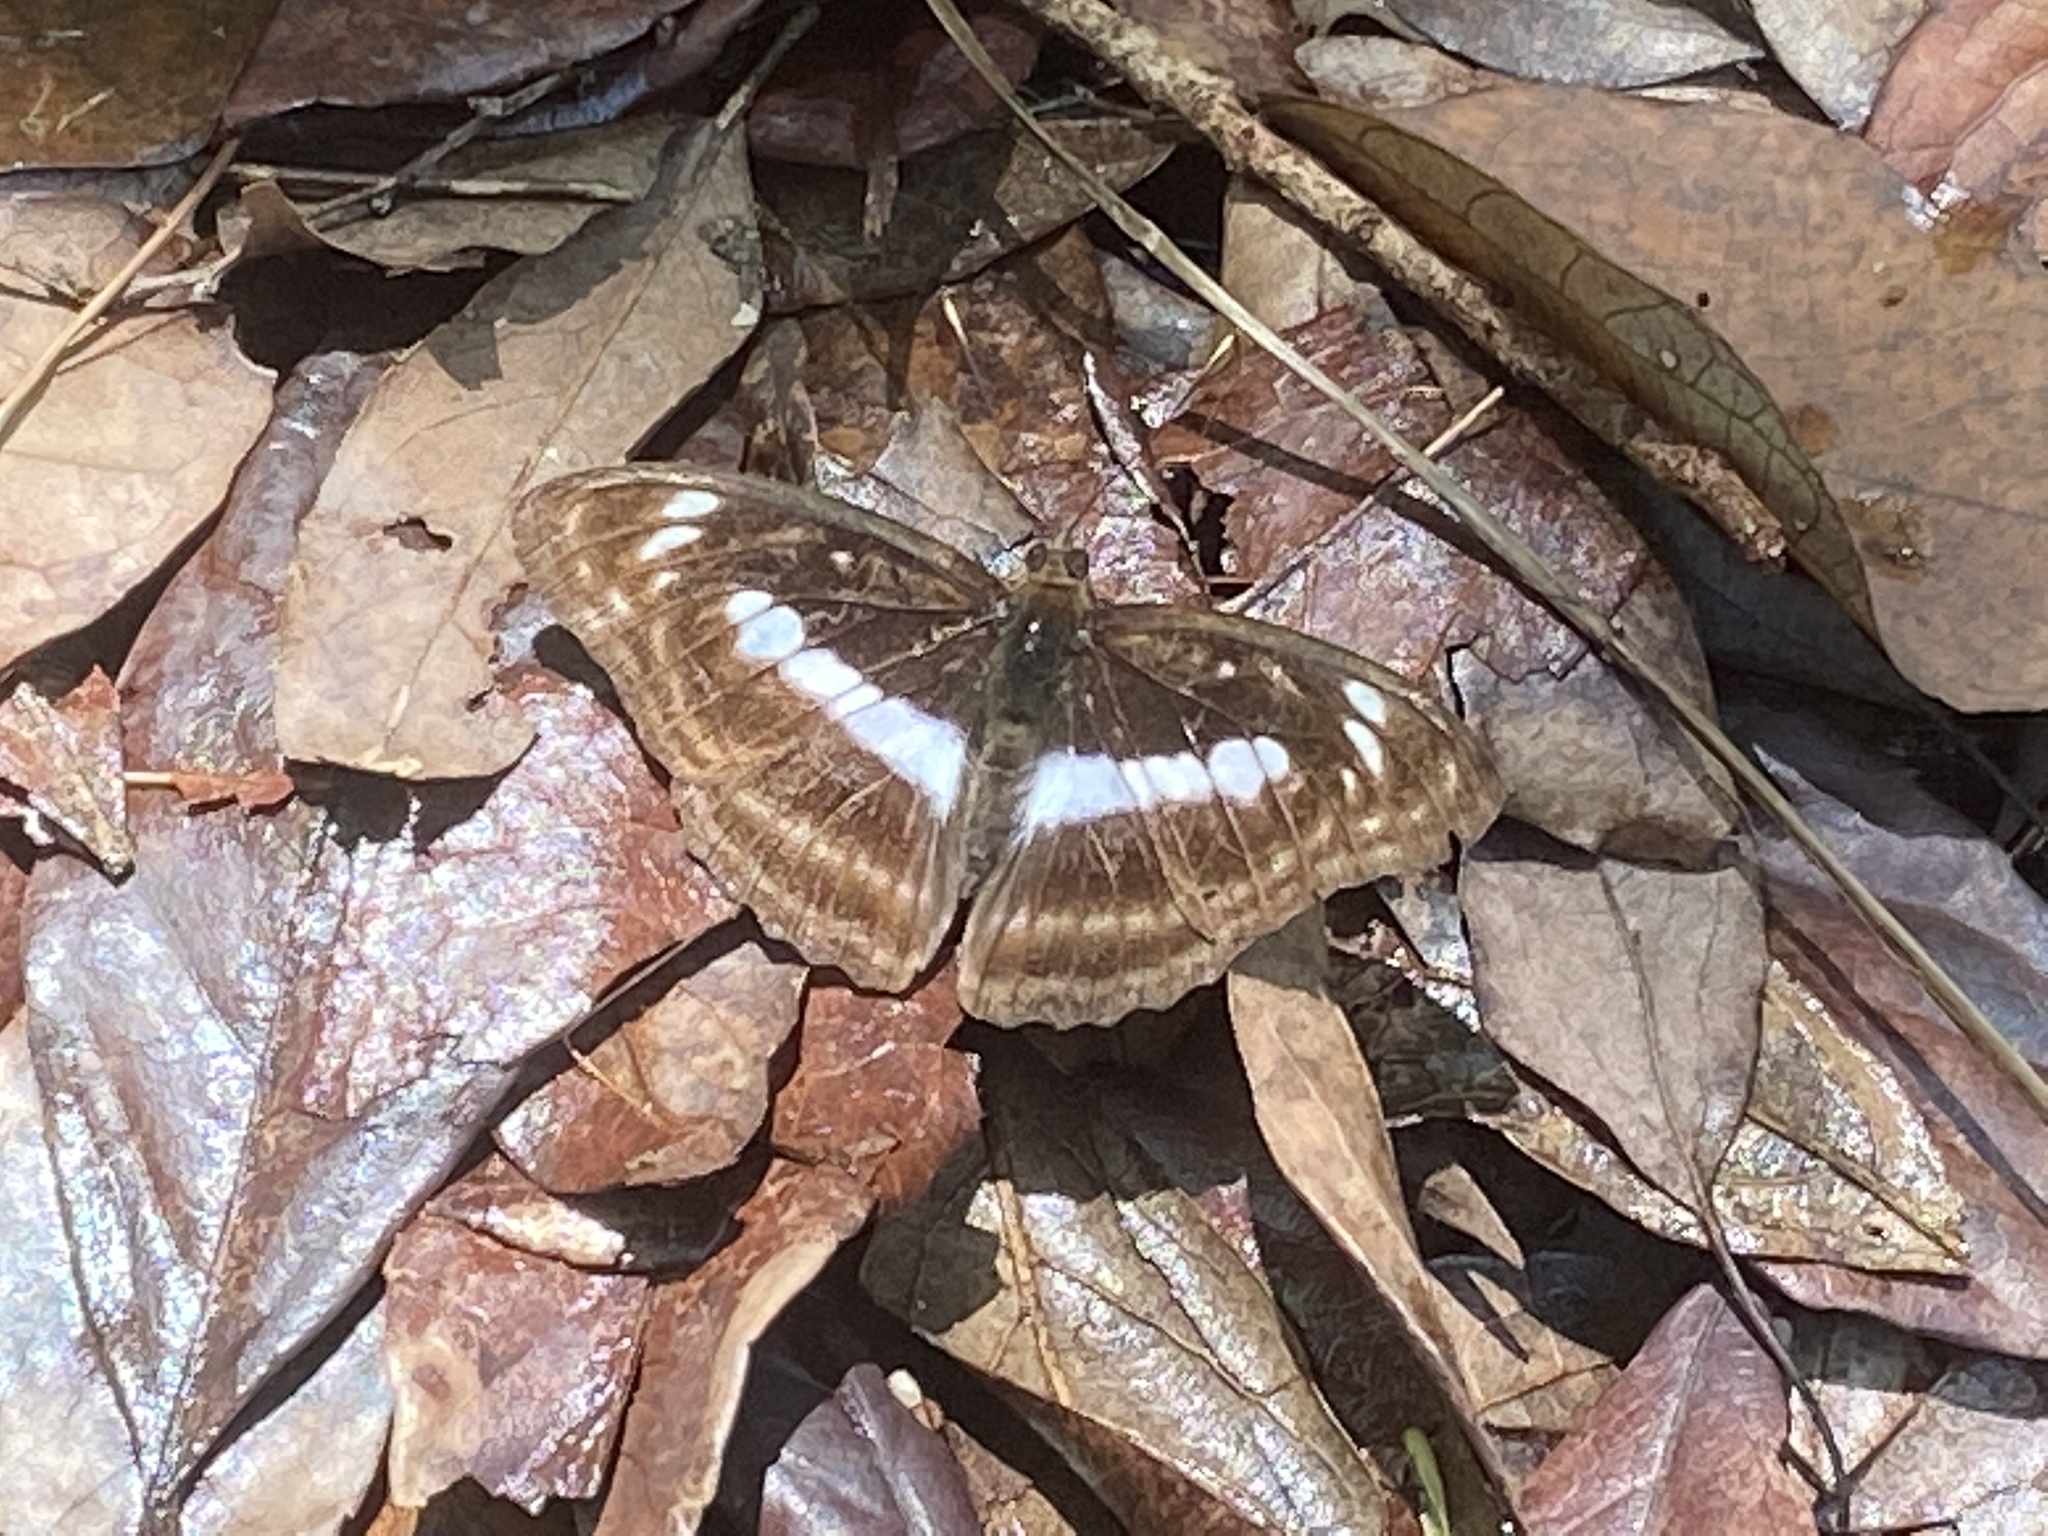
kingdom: Animalia
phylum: Arthropoda
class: Insecta
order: Lepidoptera
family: Nymphalidae
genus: Parathyma
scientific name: Parathyma selenophora
